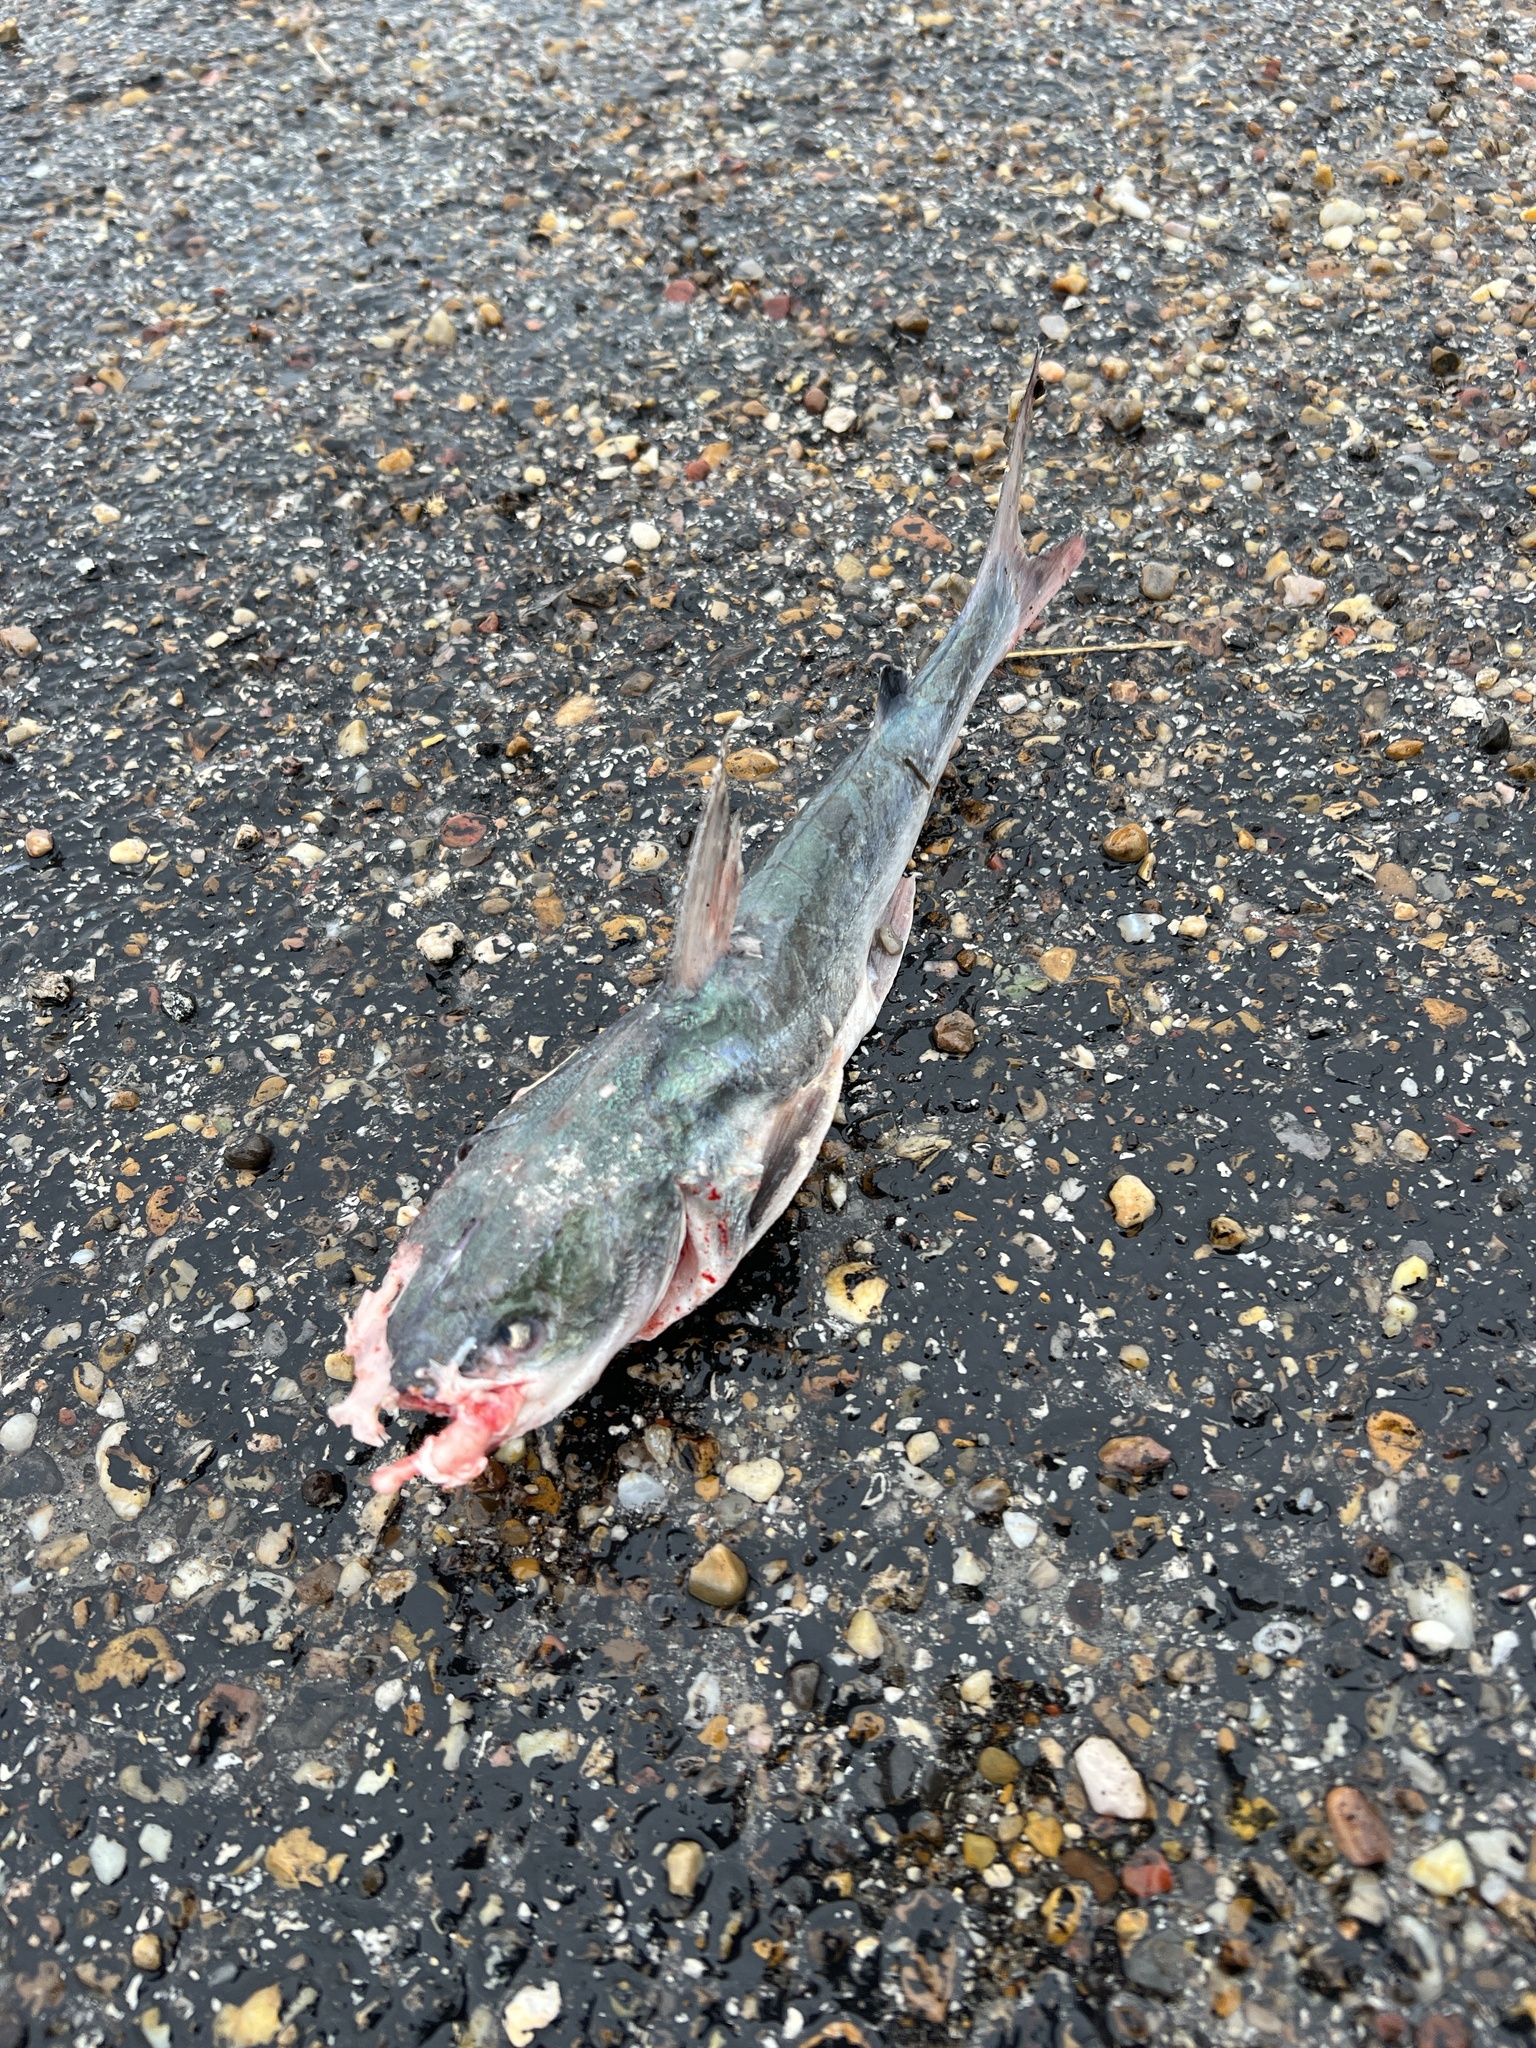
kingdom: Animalia
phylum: Chordata
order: Siluriformes
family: Ariidae
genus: Ariopsis
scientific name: Ariopsis felis
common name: Hardhead catfish
